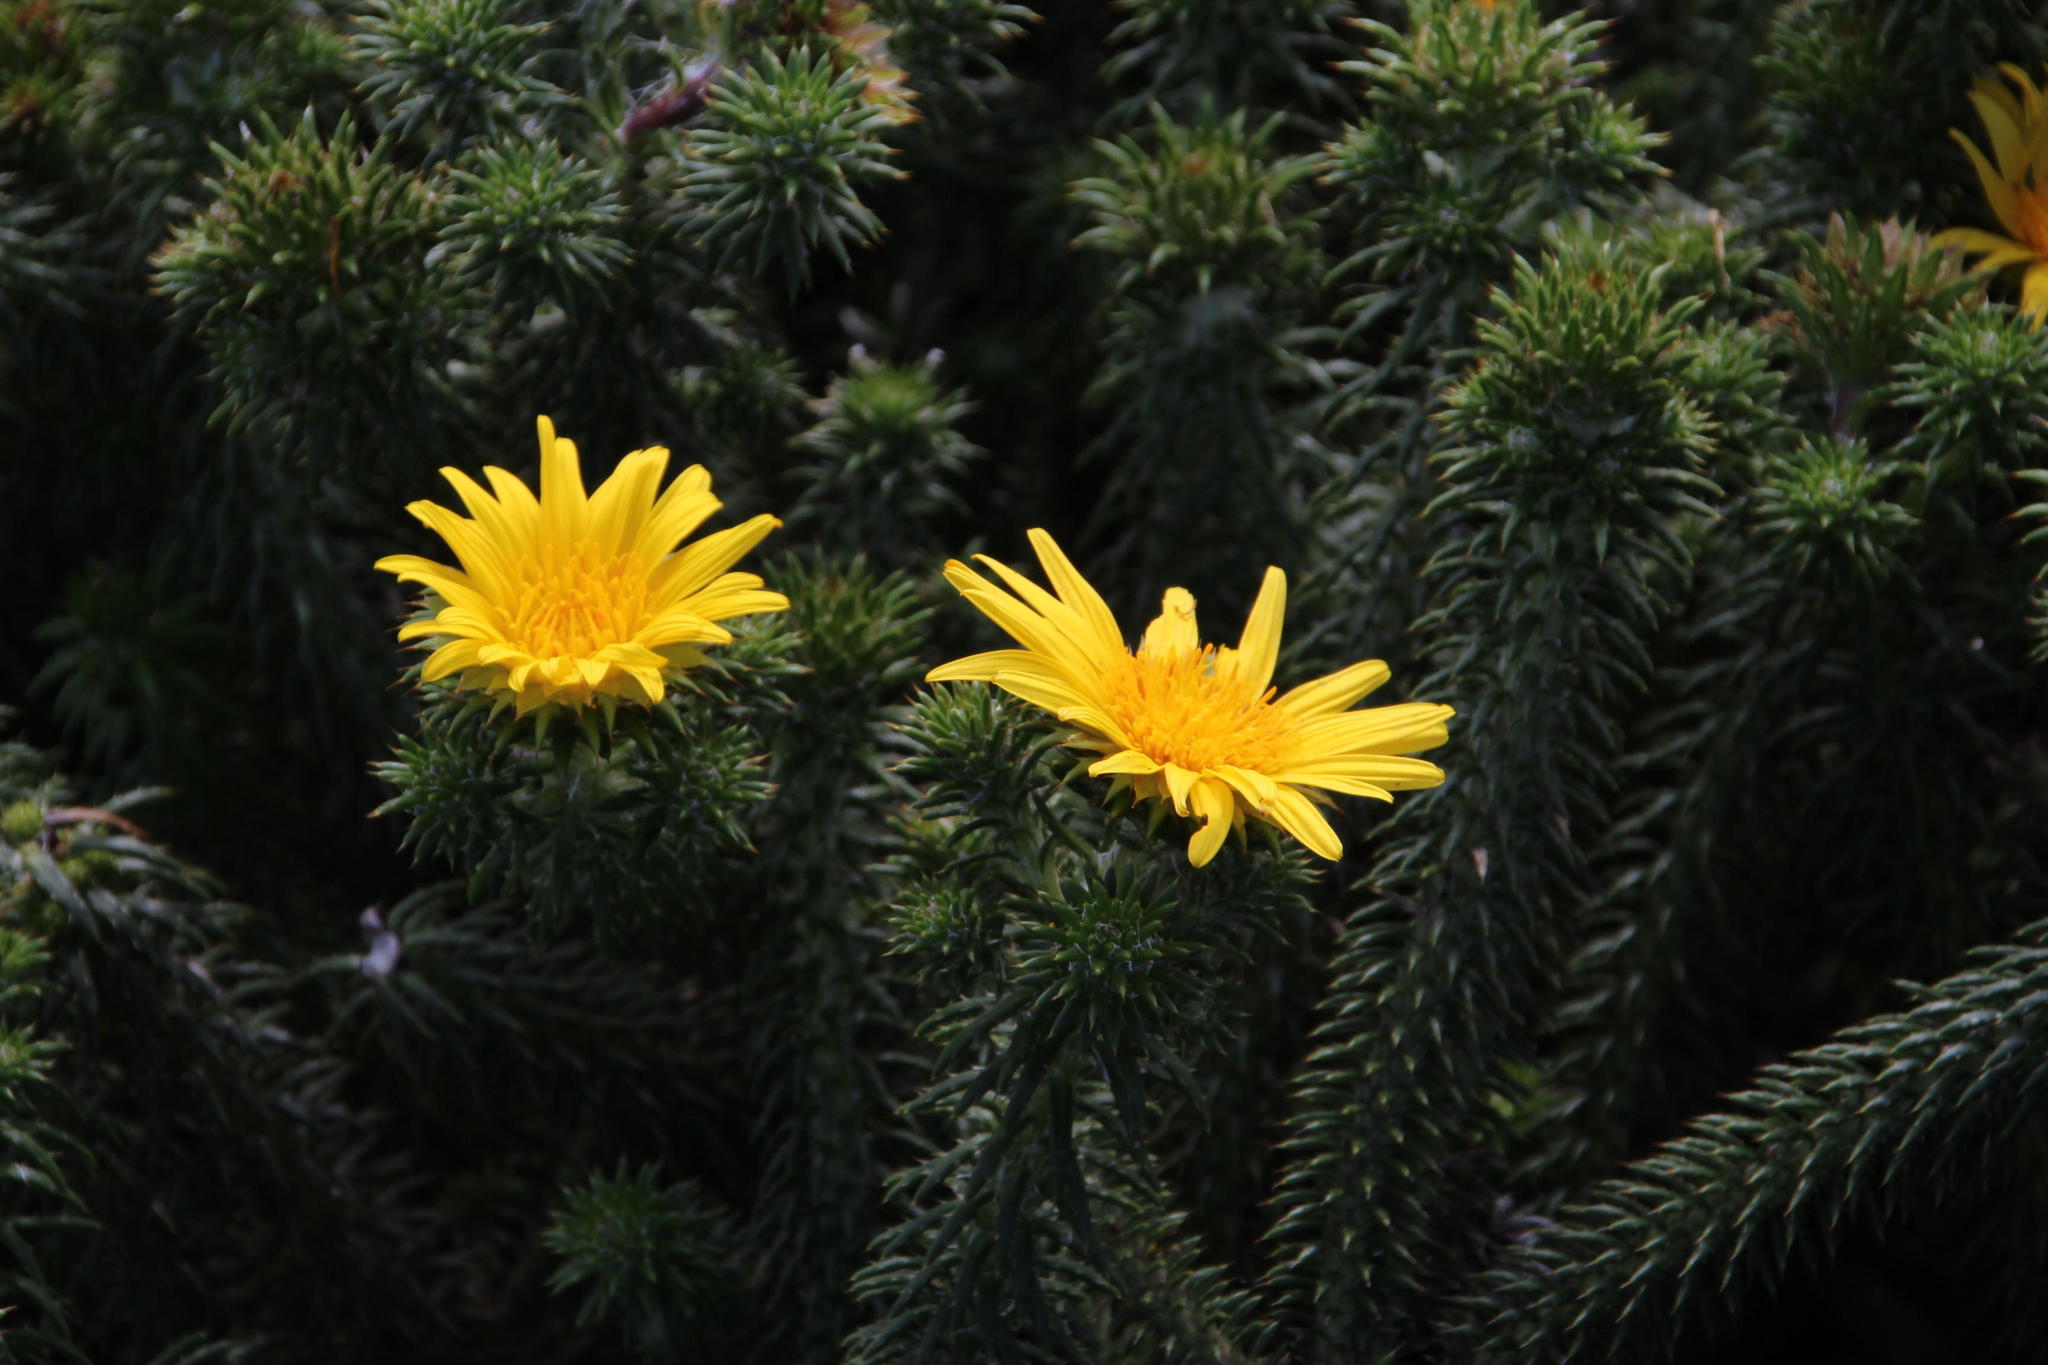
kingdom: Plantae
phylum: Tracheophyta
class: Magnoliopsida
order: Asterales
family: Asteraceae
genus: Cullumia
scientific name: Cullumia squarrosa
